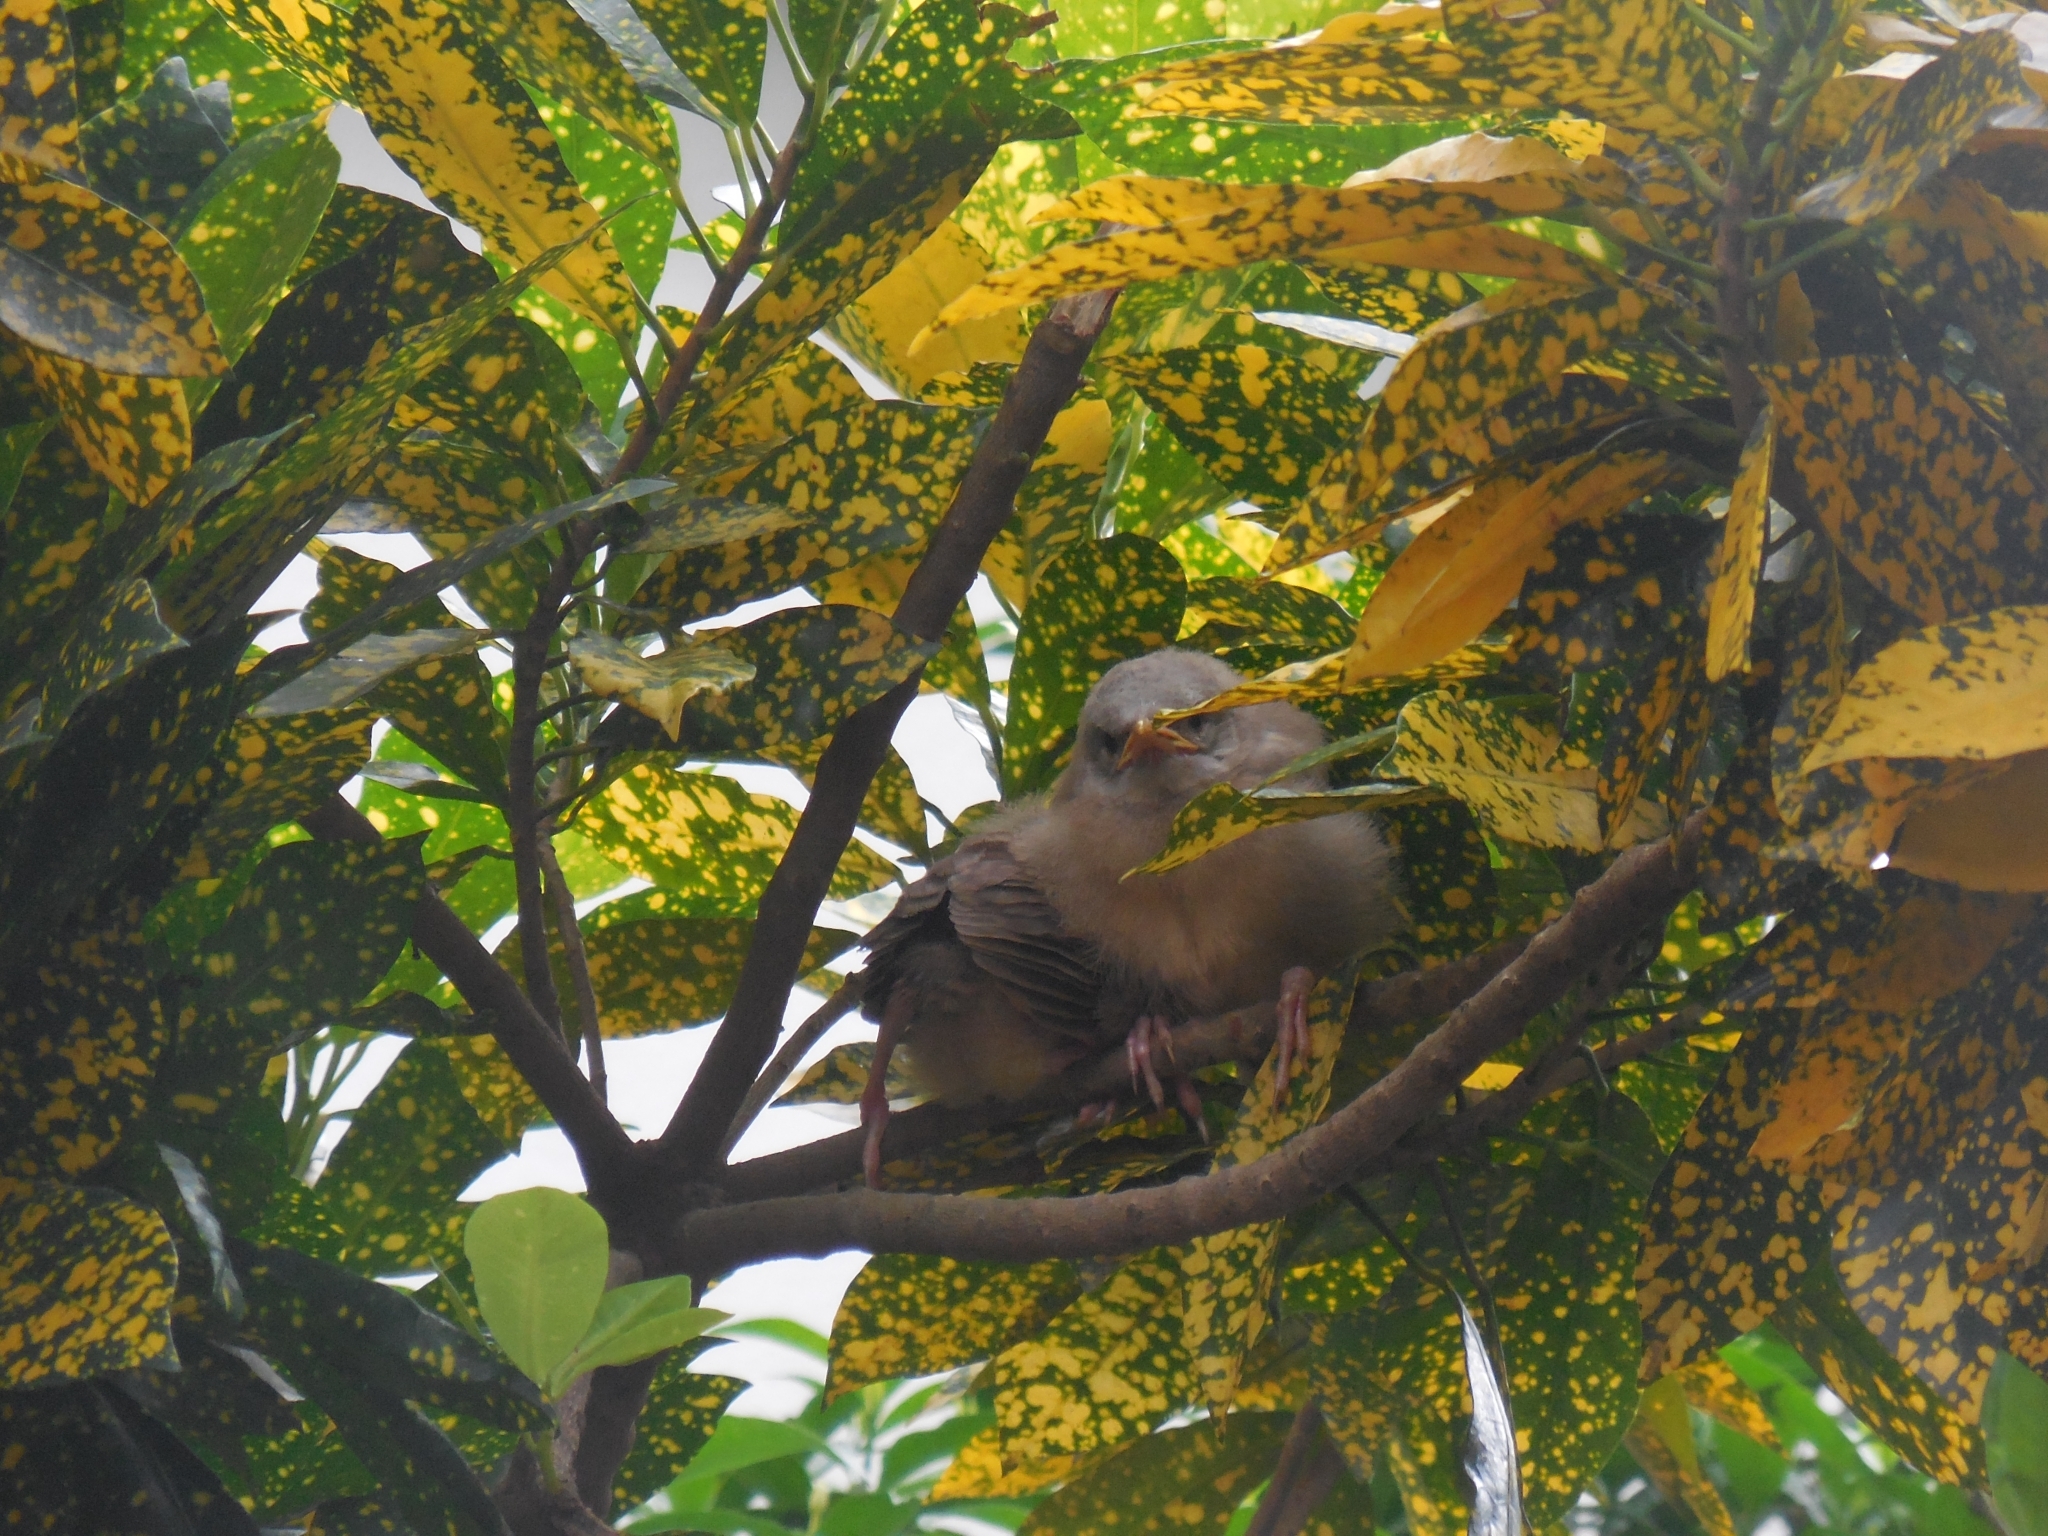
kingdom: Animalia
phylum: Chordata
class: Aves
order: Passeriformes
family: Leiothrichidae
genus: Turdoides
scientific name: Turdoides striata
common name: Jungle babbler
